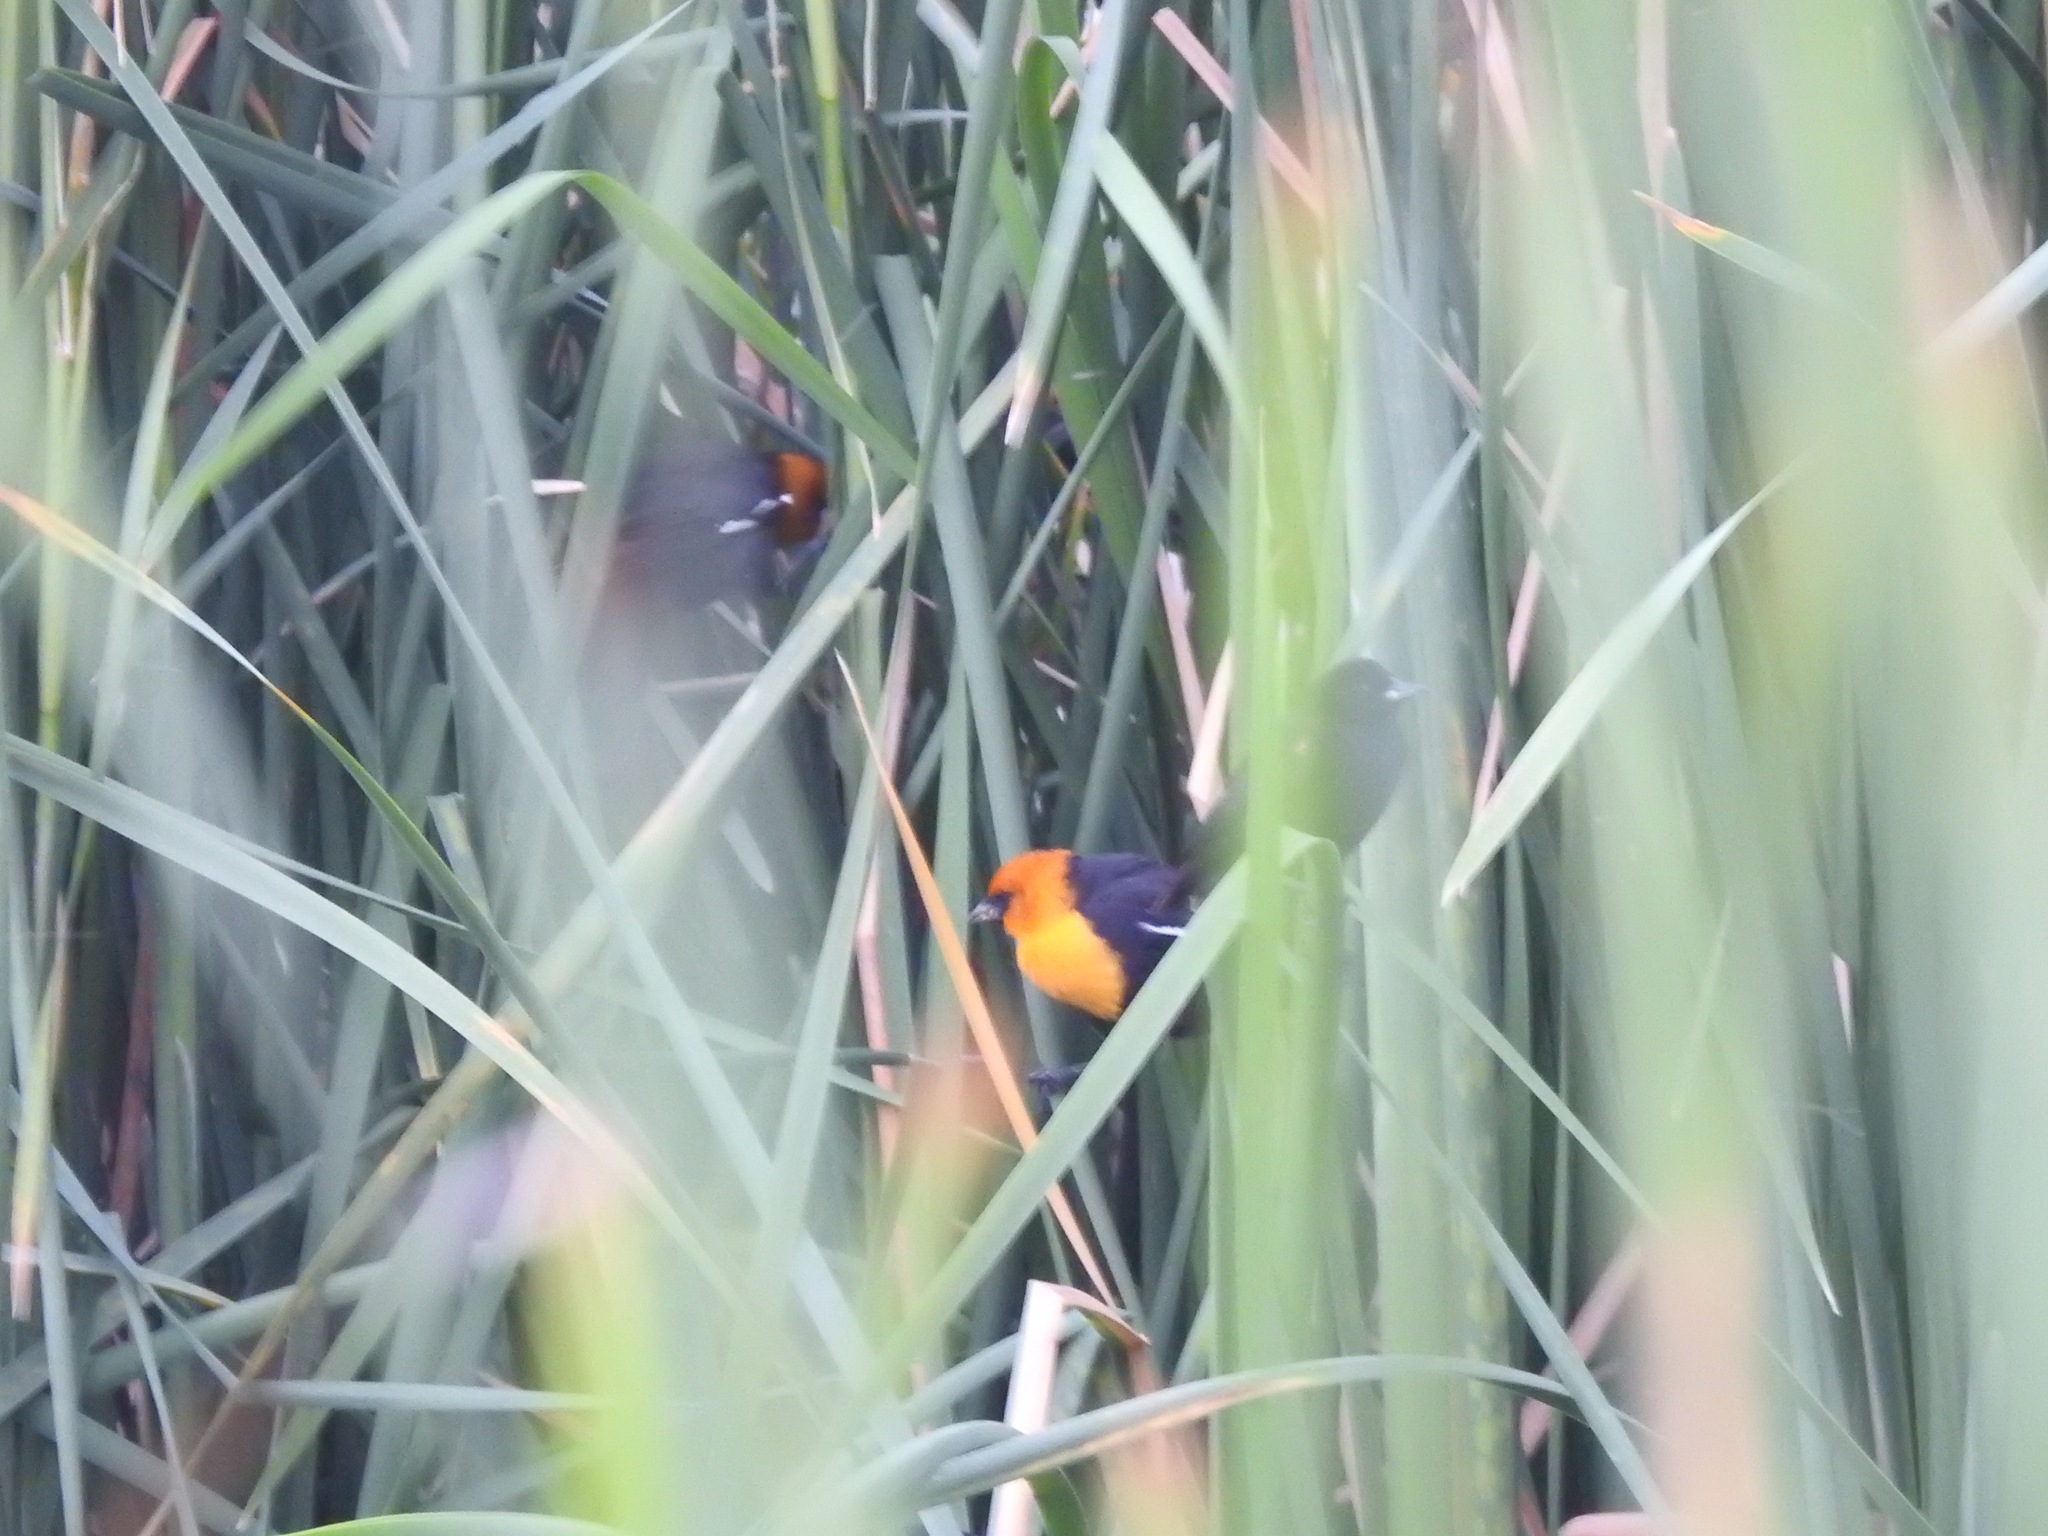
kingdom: Animalia
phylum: Chordata
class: Aves
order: Passeriformes
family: Icteridae
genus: Xanthocephalus
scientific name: Xanthocephalus xanthocephalus
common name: Yellow-headed blackbird
